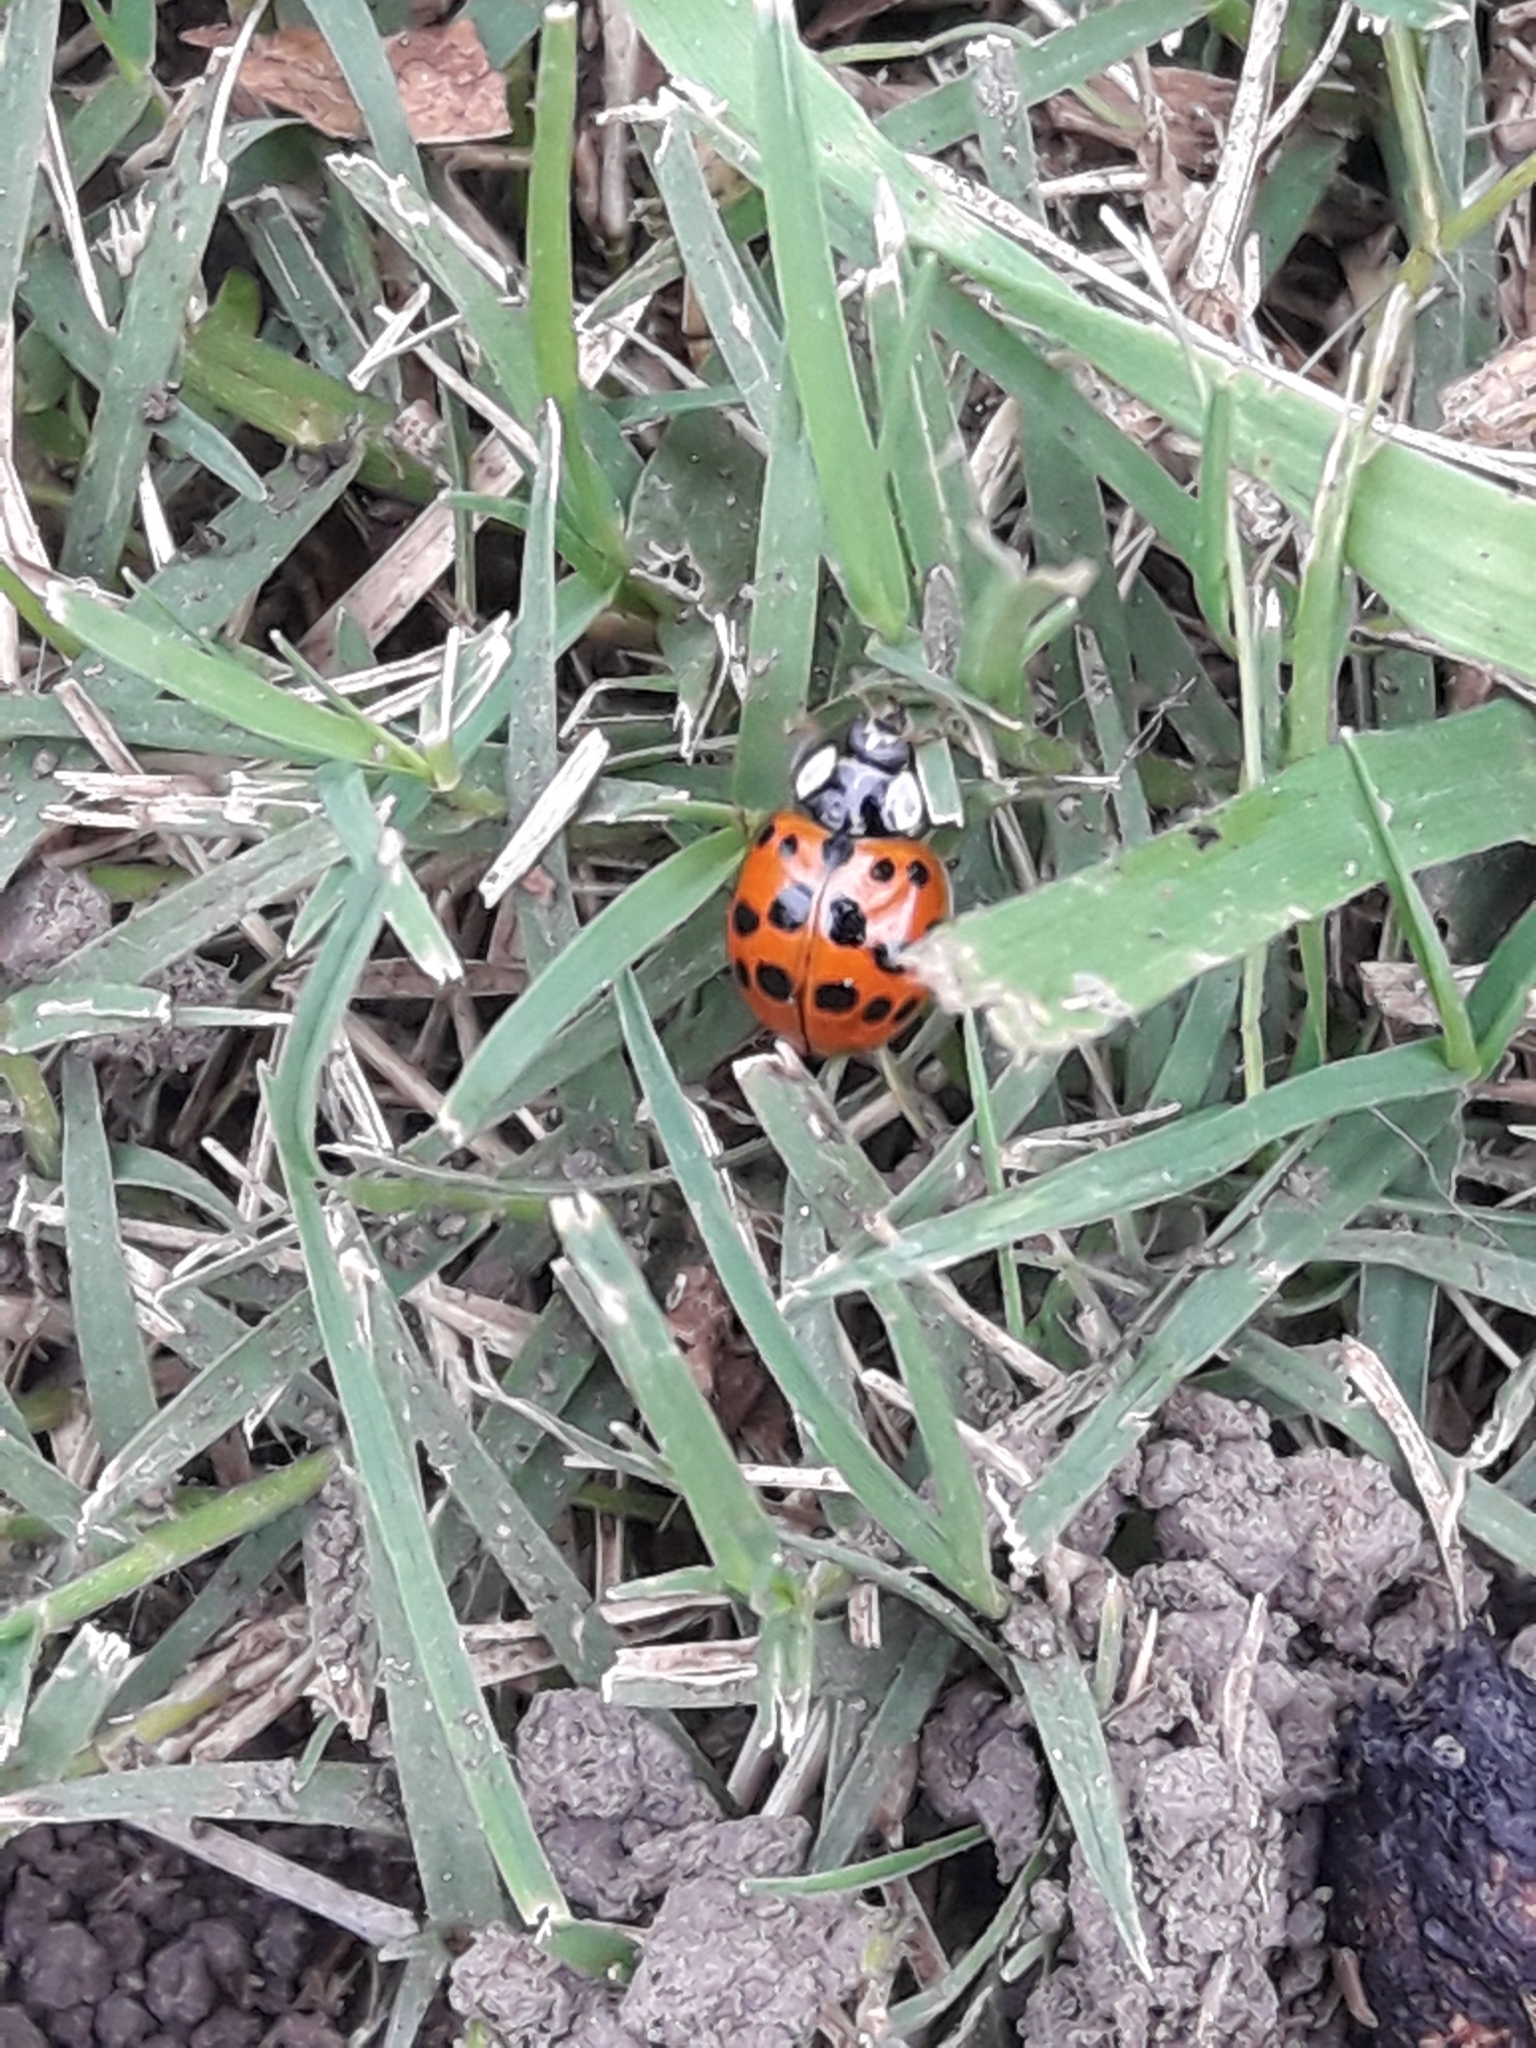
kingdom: Animalia
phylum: Arthropoda
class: Insecta
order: Coleoptera
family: Coccinellidae
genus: Harmonia
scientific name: Harmonia axyridis
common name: Harlequin ladybird
